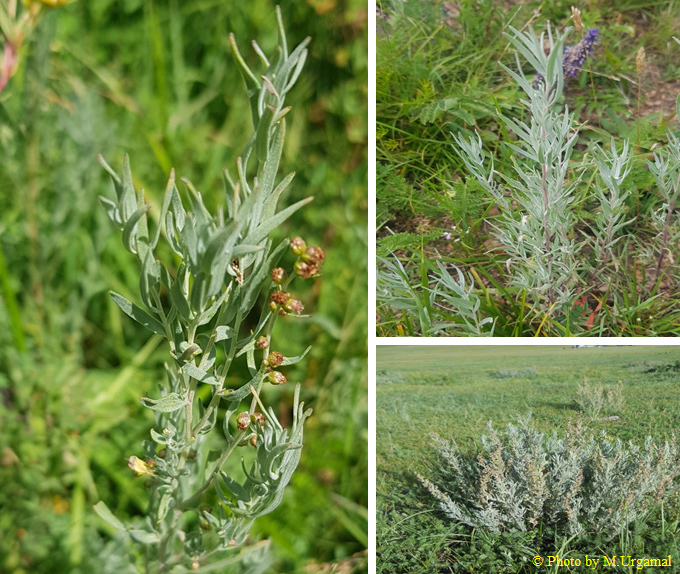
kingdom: Plantae
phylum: Tracheophyta
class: Magnoliopsida
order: Asterales
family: Asteraceae
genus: Artemisia
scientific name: Artemisia glauca
